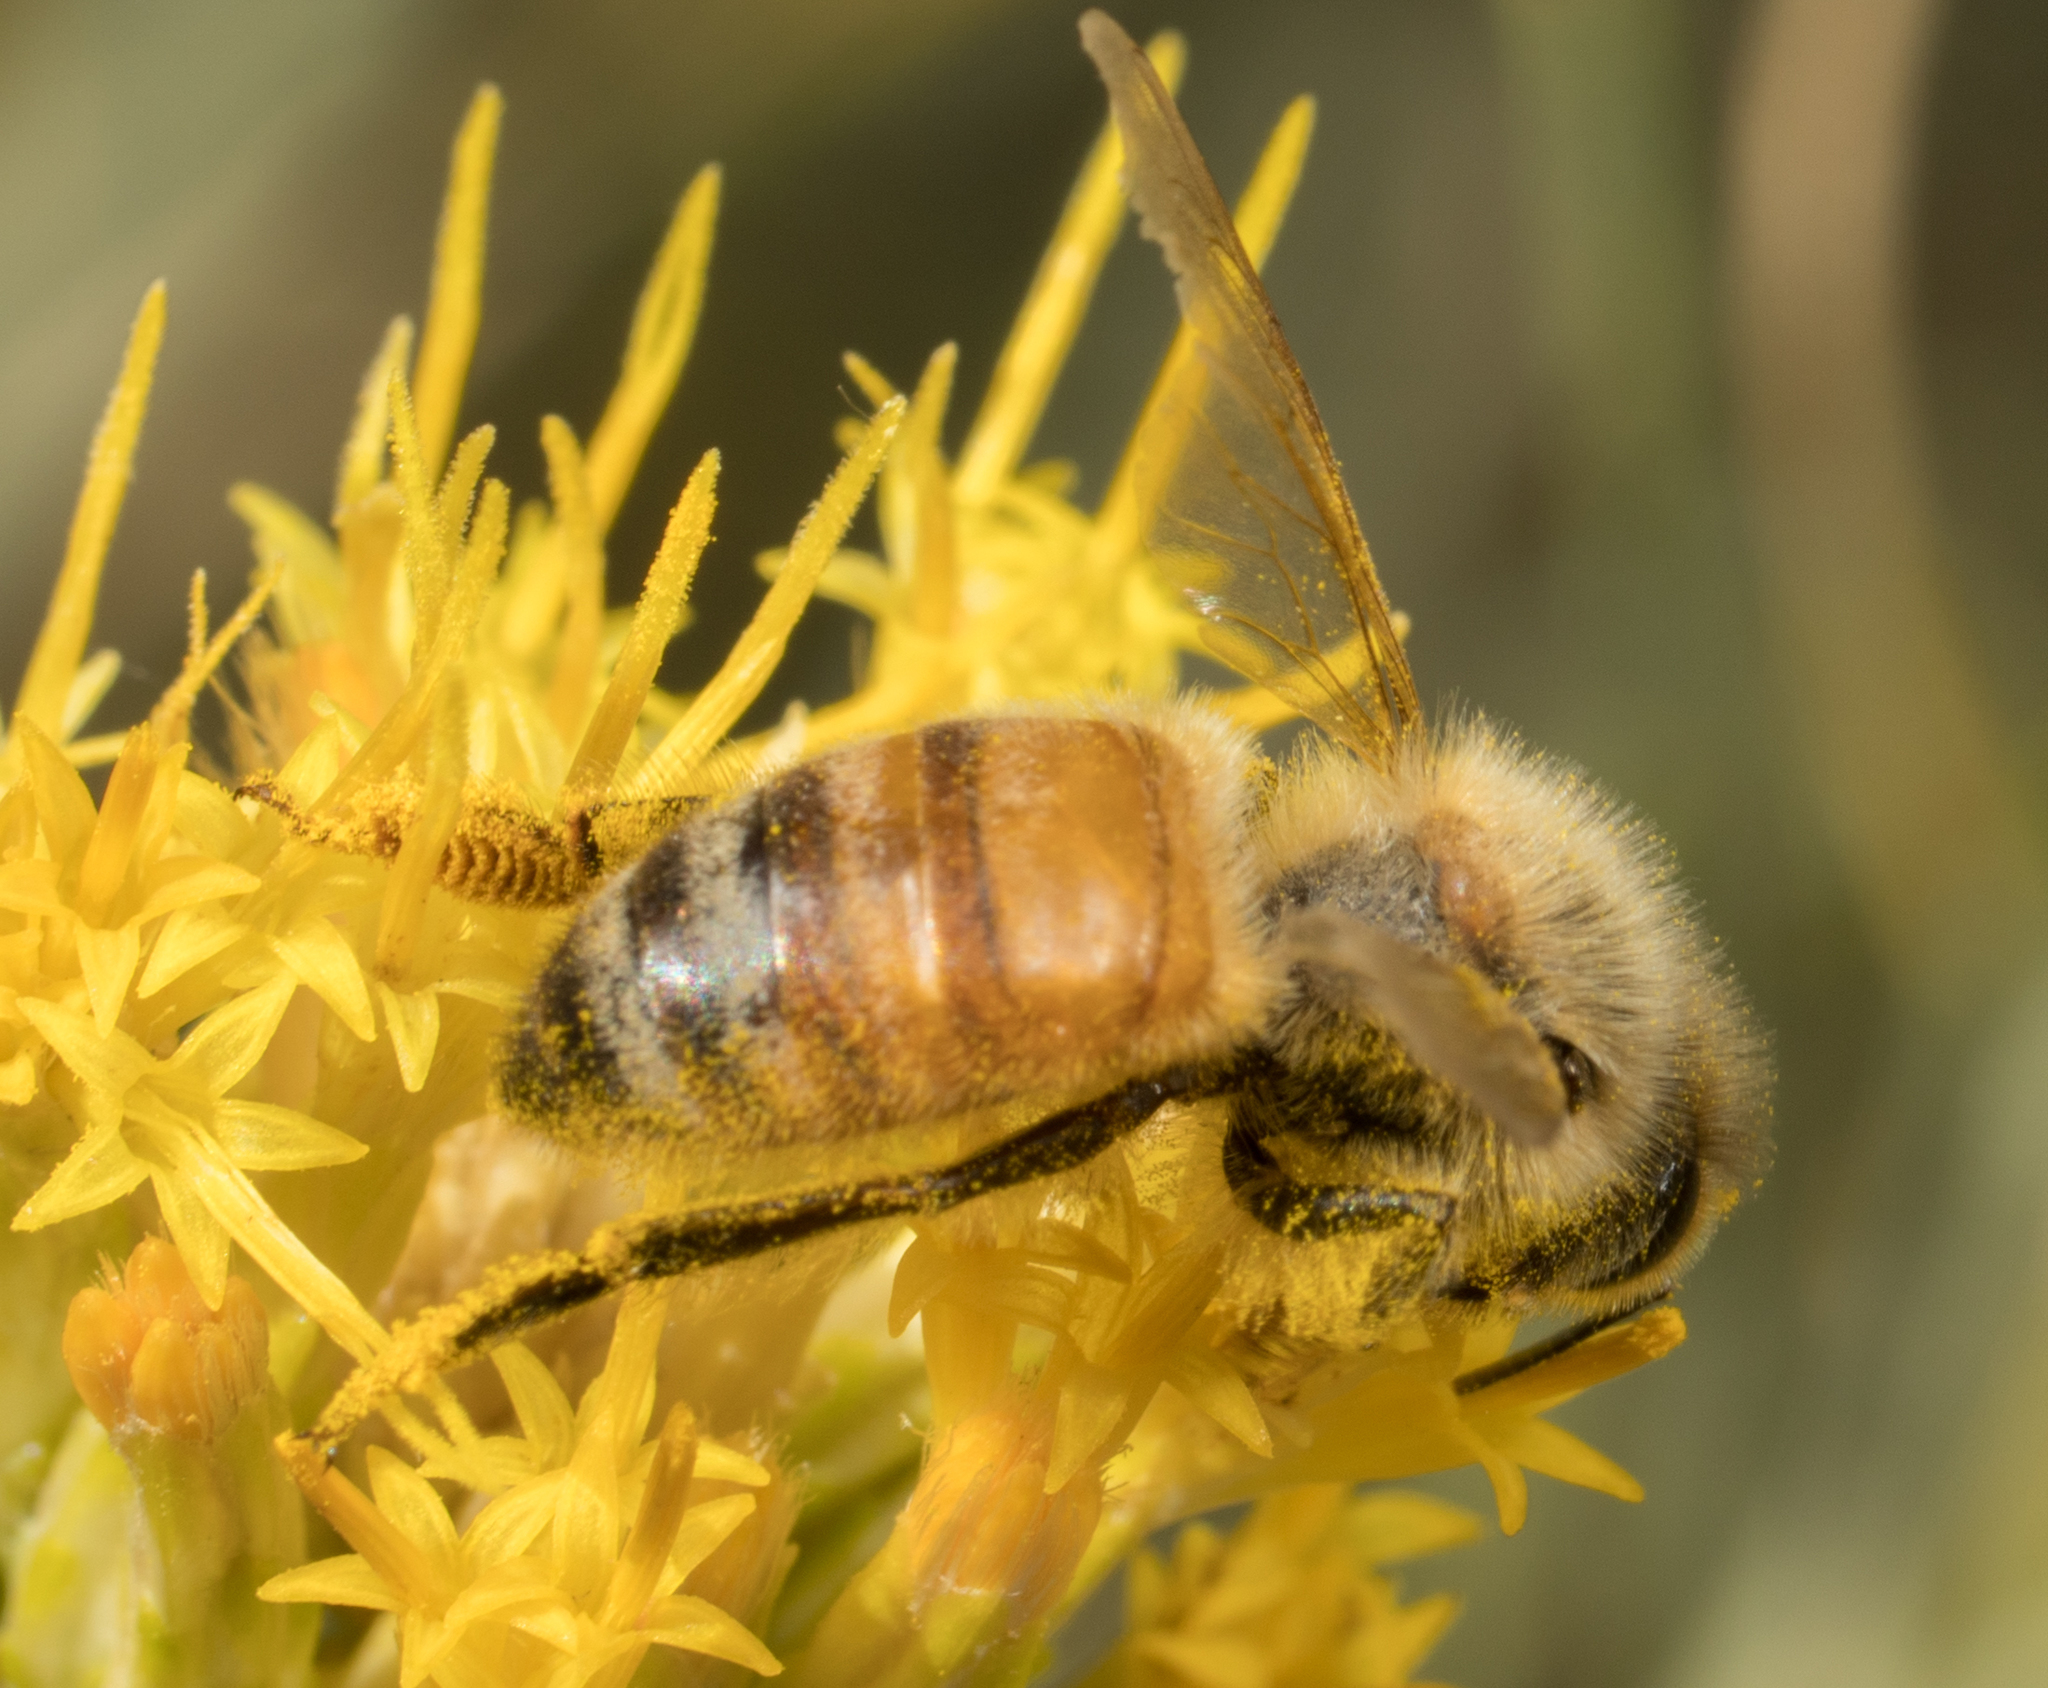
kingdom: Animalia
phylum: Arthropoda
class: Insecta
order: Hymenoptera
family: Apidae
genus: Apis
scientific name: Apis mellifera
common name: Honey bee
